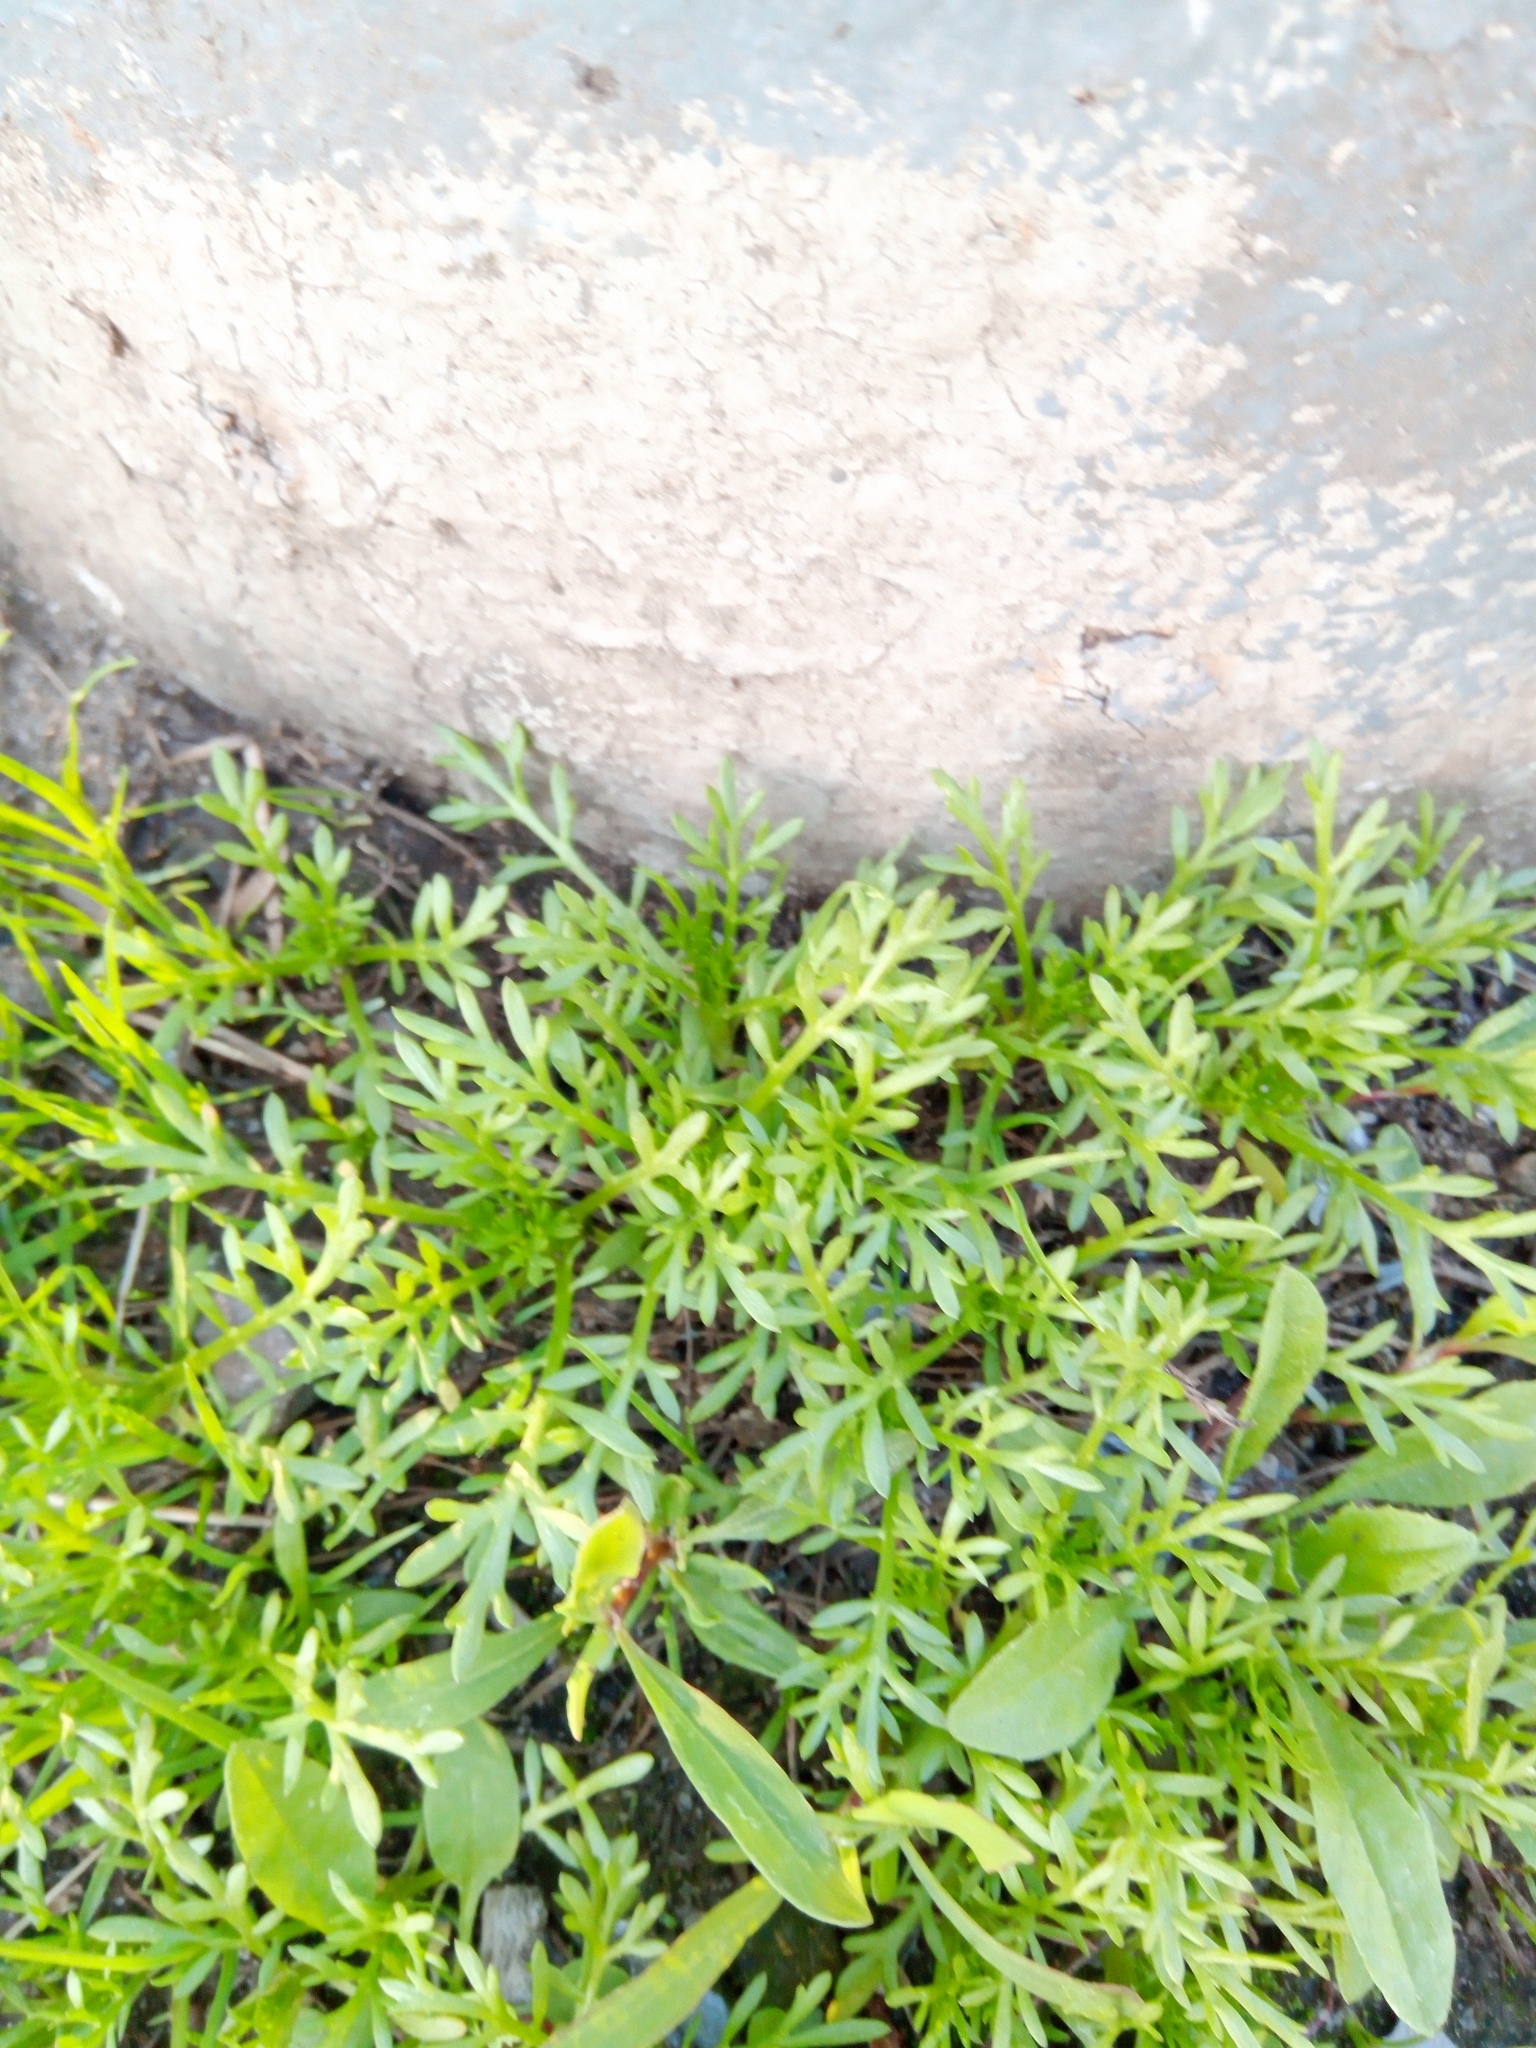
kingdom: Plantae
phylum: Tracheophyta
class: Magnoliopsida
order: Asterales
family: Asteraceae
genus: Matricaria
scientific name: Matricaria discoidea
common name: Disc mayweed
